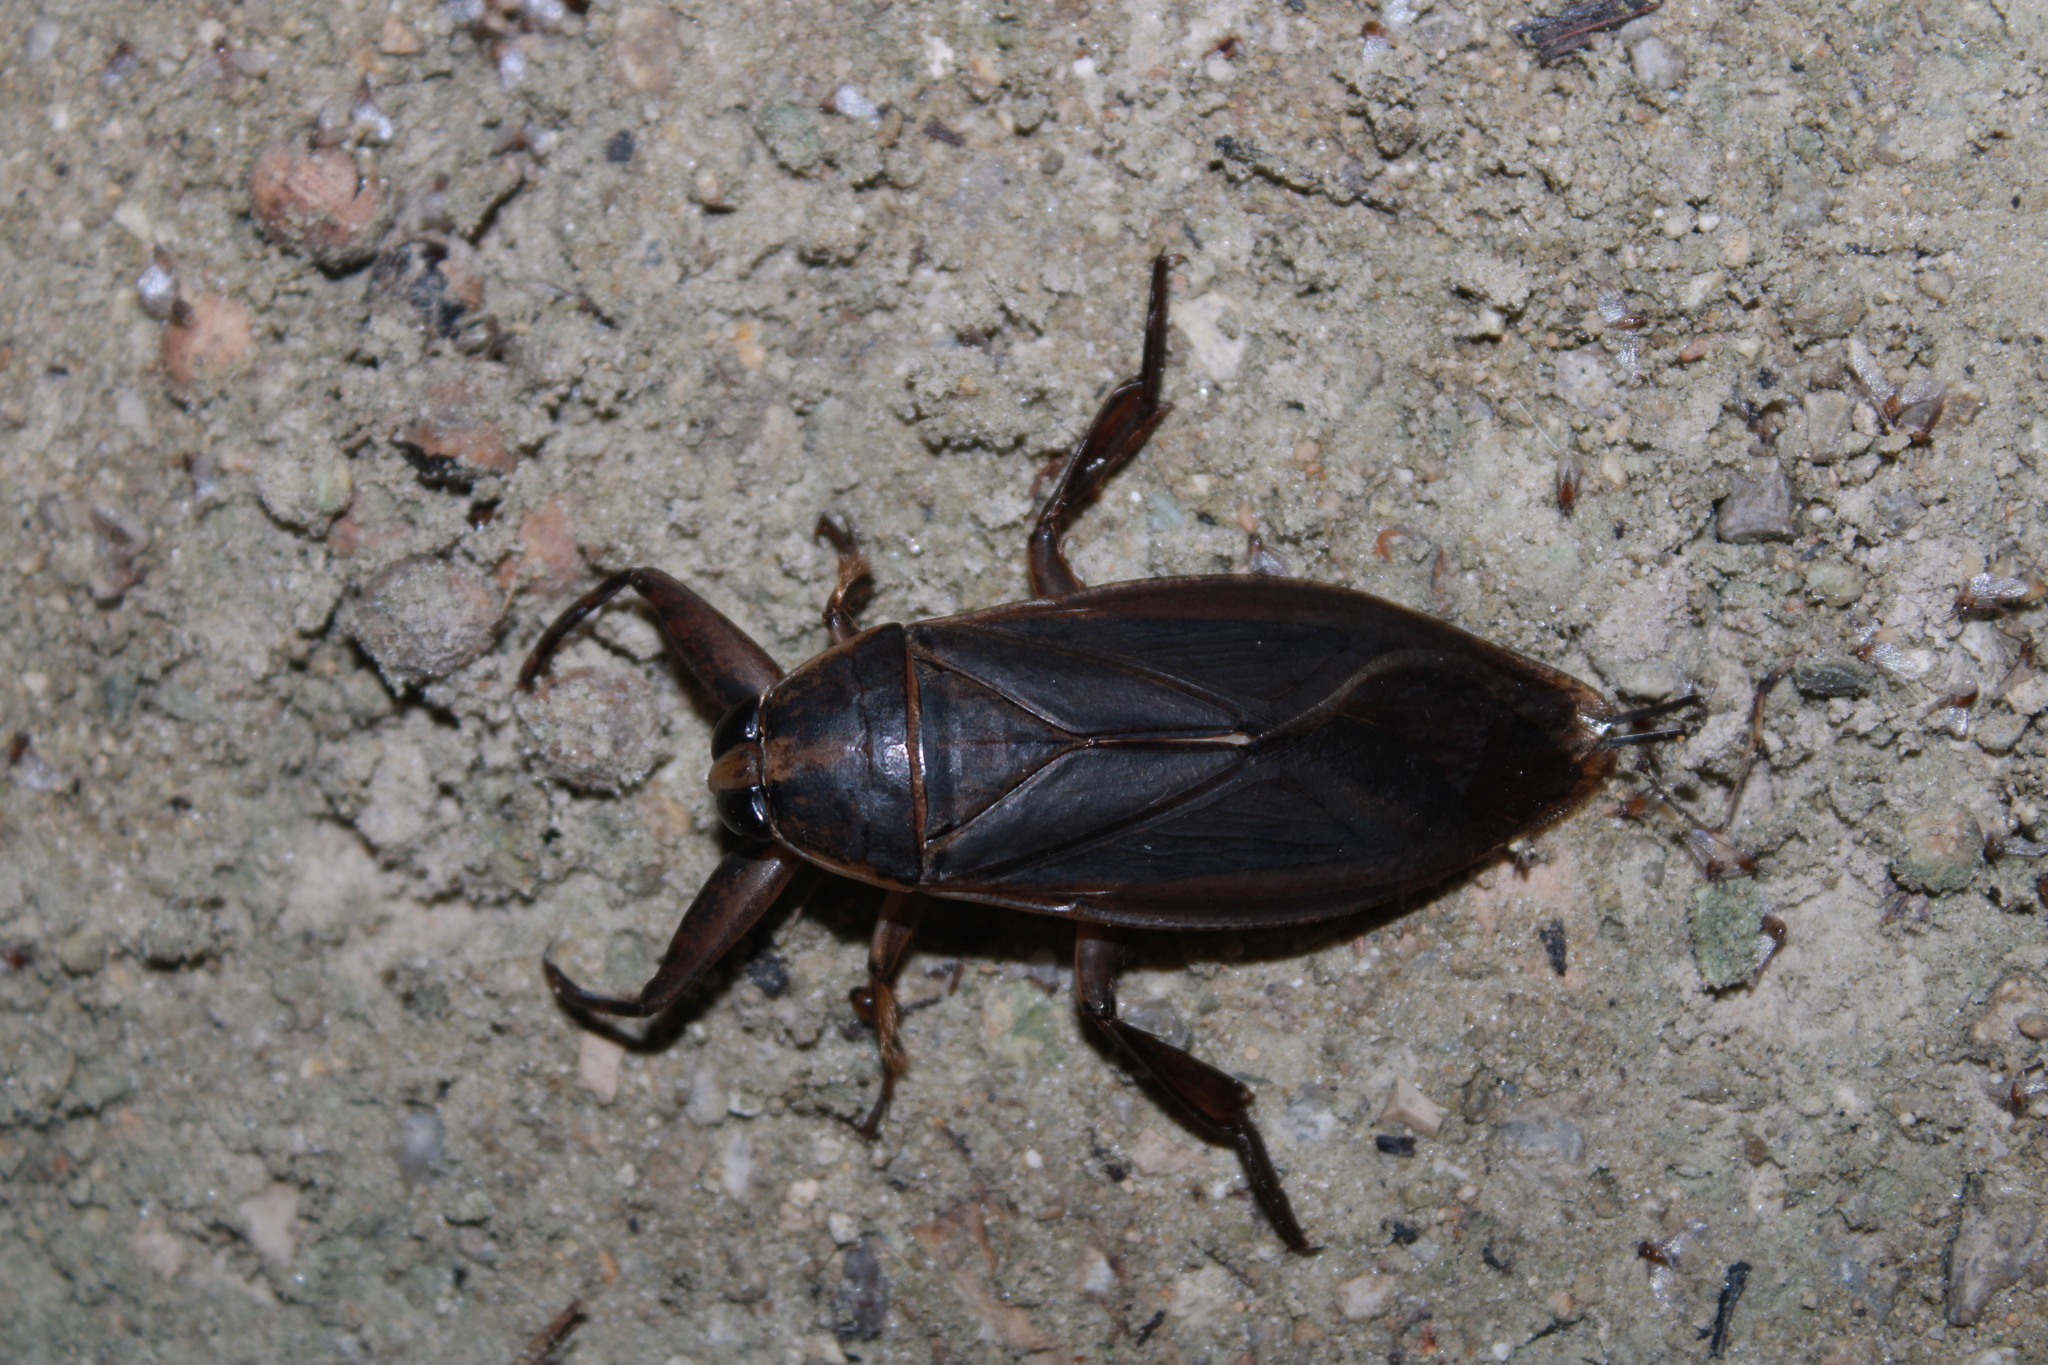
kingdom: Animalia
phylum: Arthropoda
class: Insecta
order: Hemiptera
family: Belostomatidae
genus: Benacus
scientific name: Benacus griseus
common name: Eastern toe-biter
